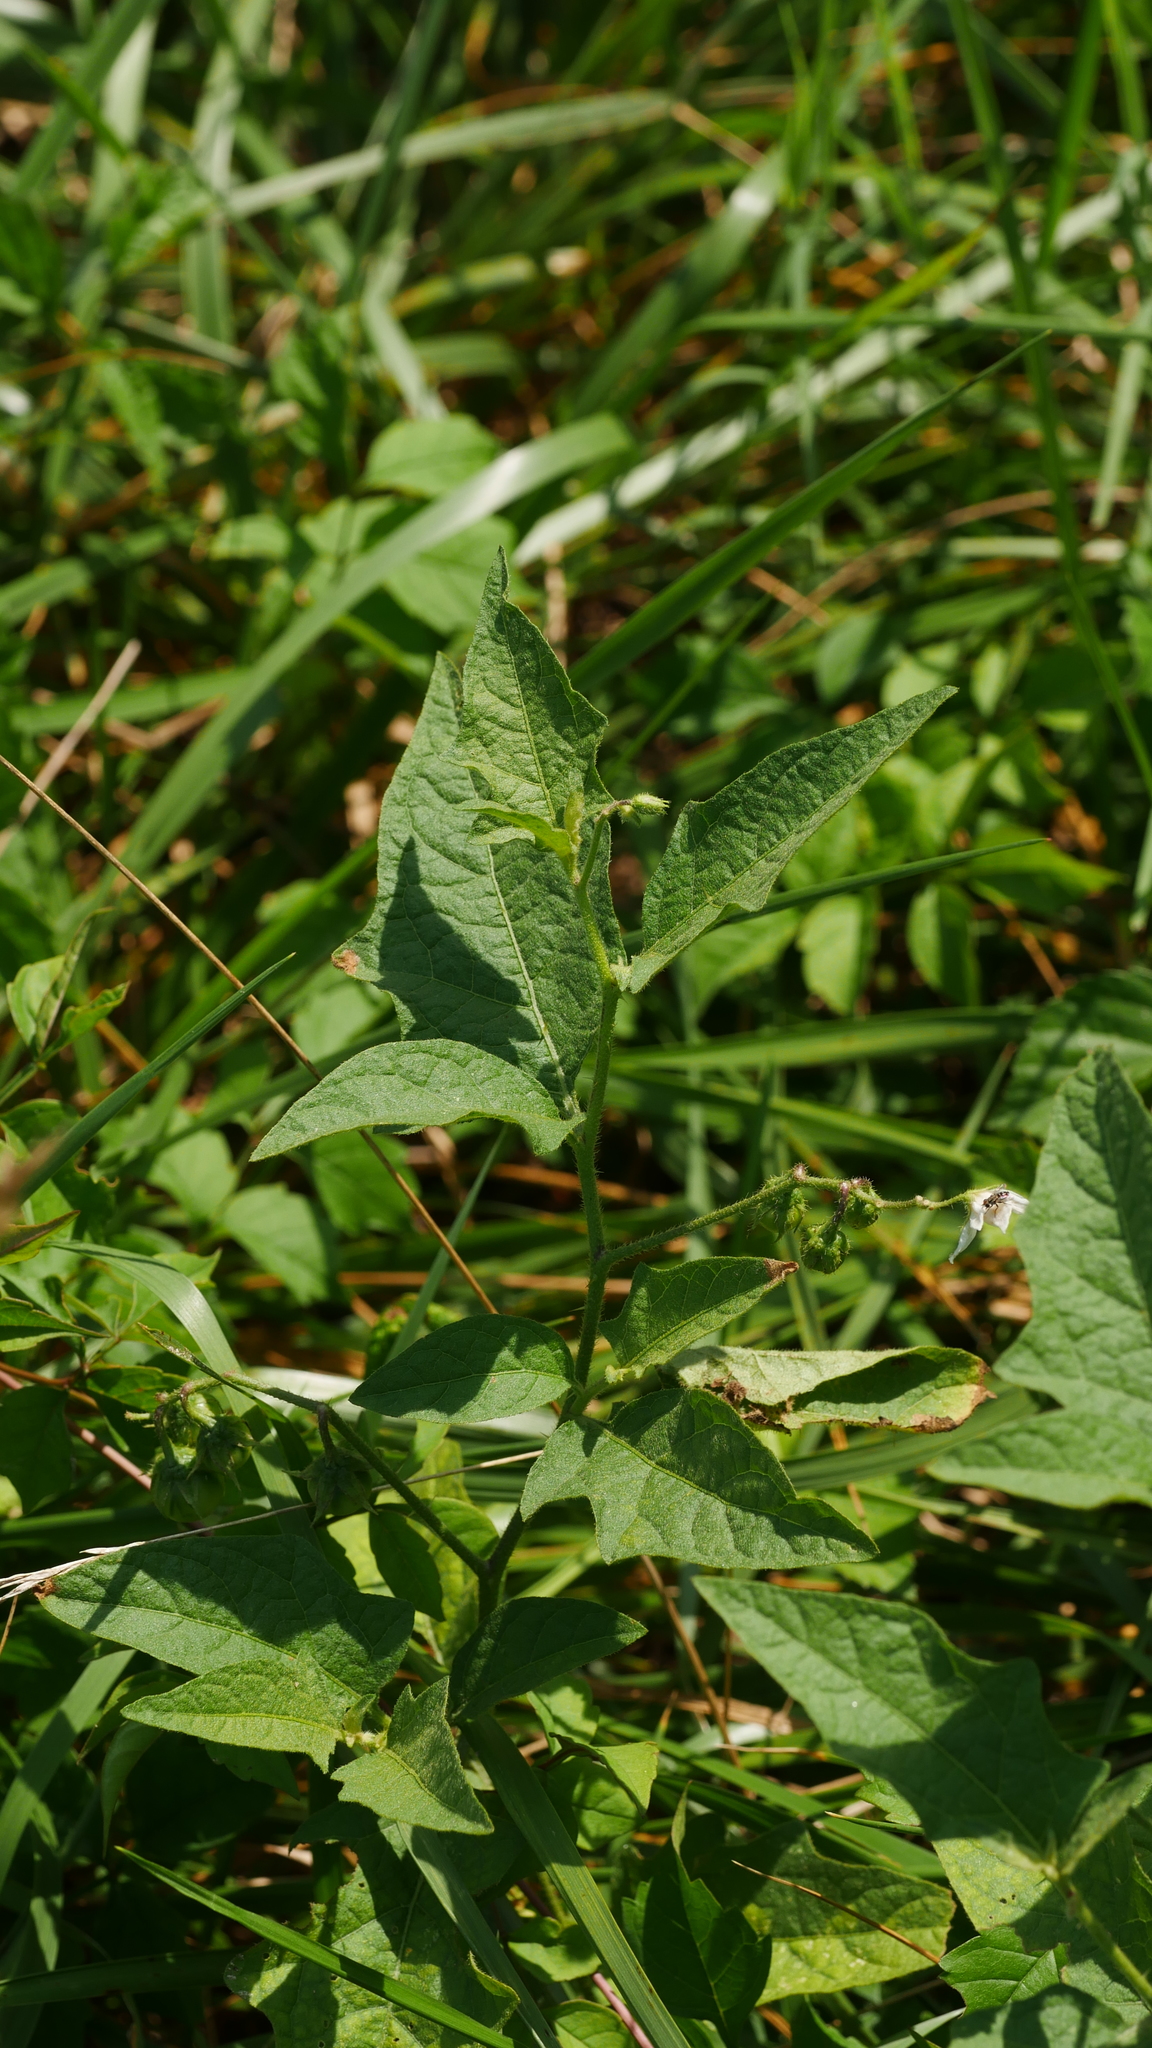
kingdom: Plantae
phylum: Tracheophyta
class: Magnoliopsida
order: Solanales
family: Solanaceae
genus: Solanum
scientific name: Solanum carolinense
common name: Horse-nettle
